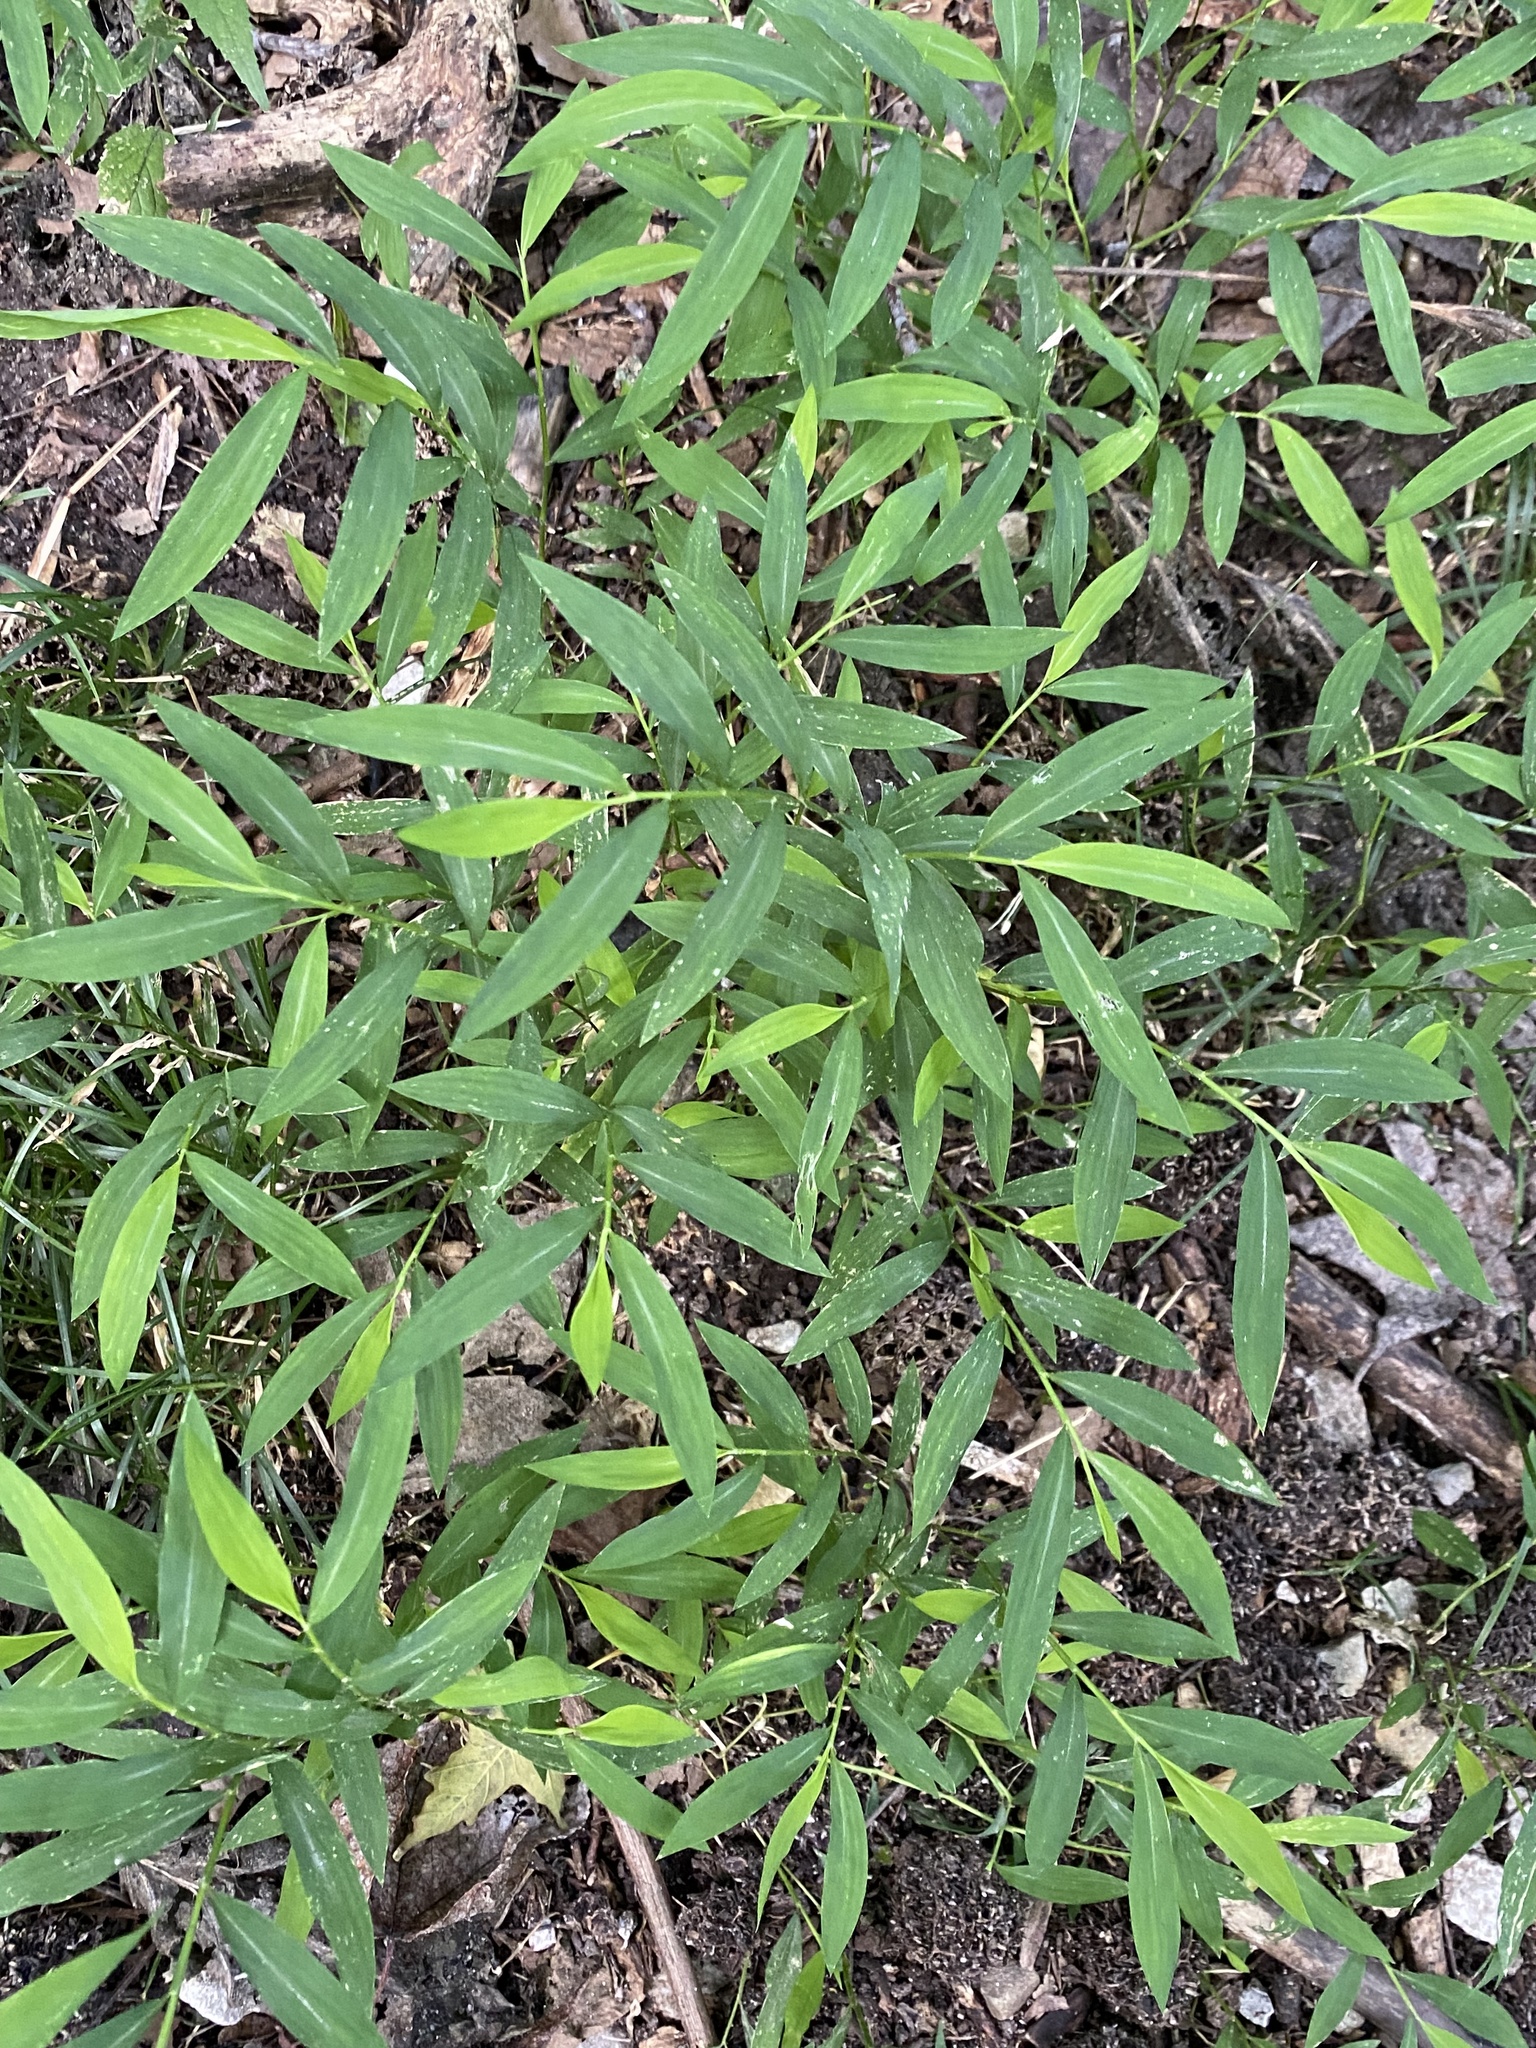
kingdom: Plantae
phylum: Tracheophyta
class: Liliopsida
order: Poales
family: Poaceae
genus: Microstegium
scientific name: Microstegium vimineum
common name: Japanese stiltgrass
